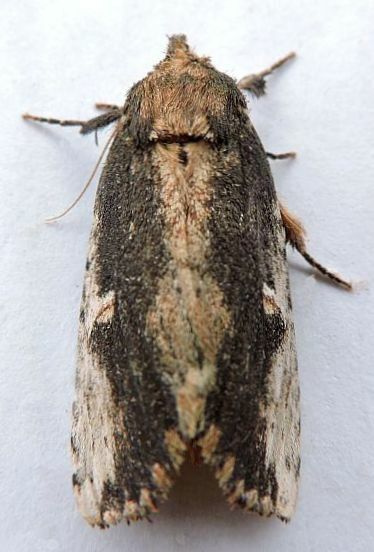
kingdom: Animalia
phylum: Arthropoda
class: Insecta
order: Lepidoptera
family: Notodontidae
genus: Schizura
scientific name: Schizura ipomaeae
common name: Morning-glory prominent
